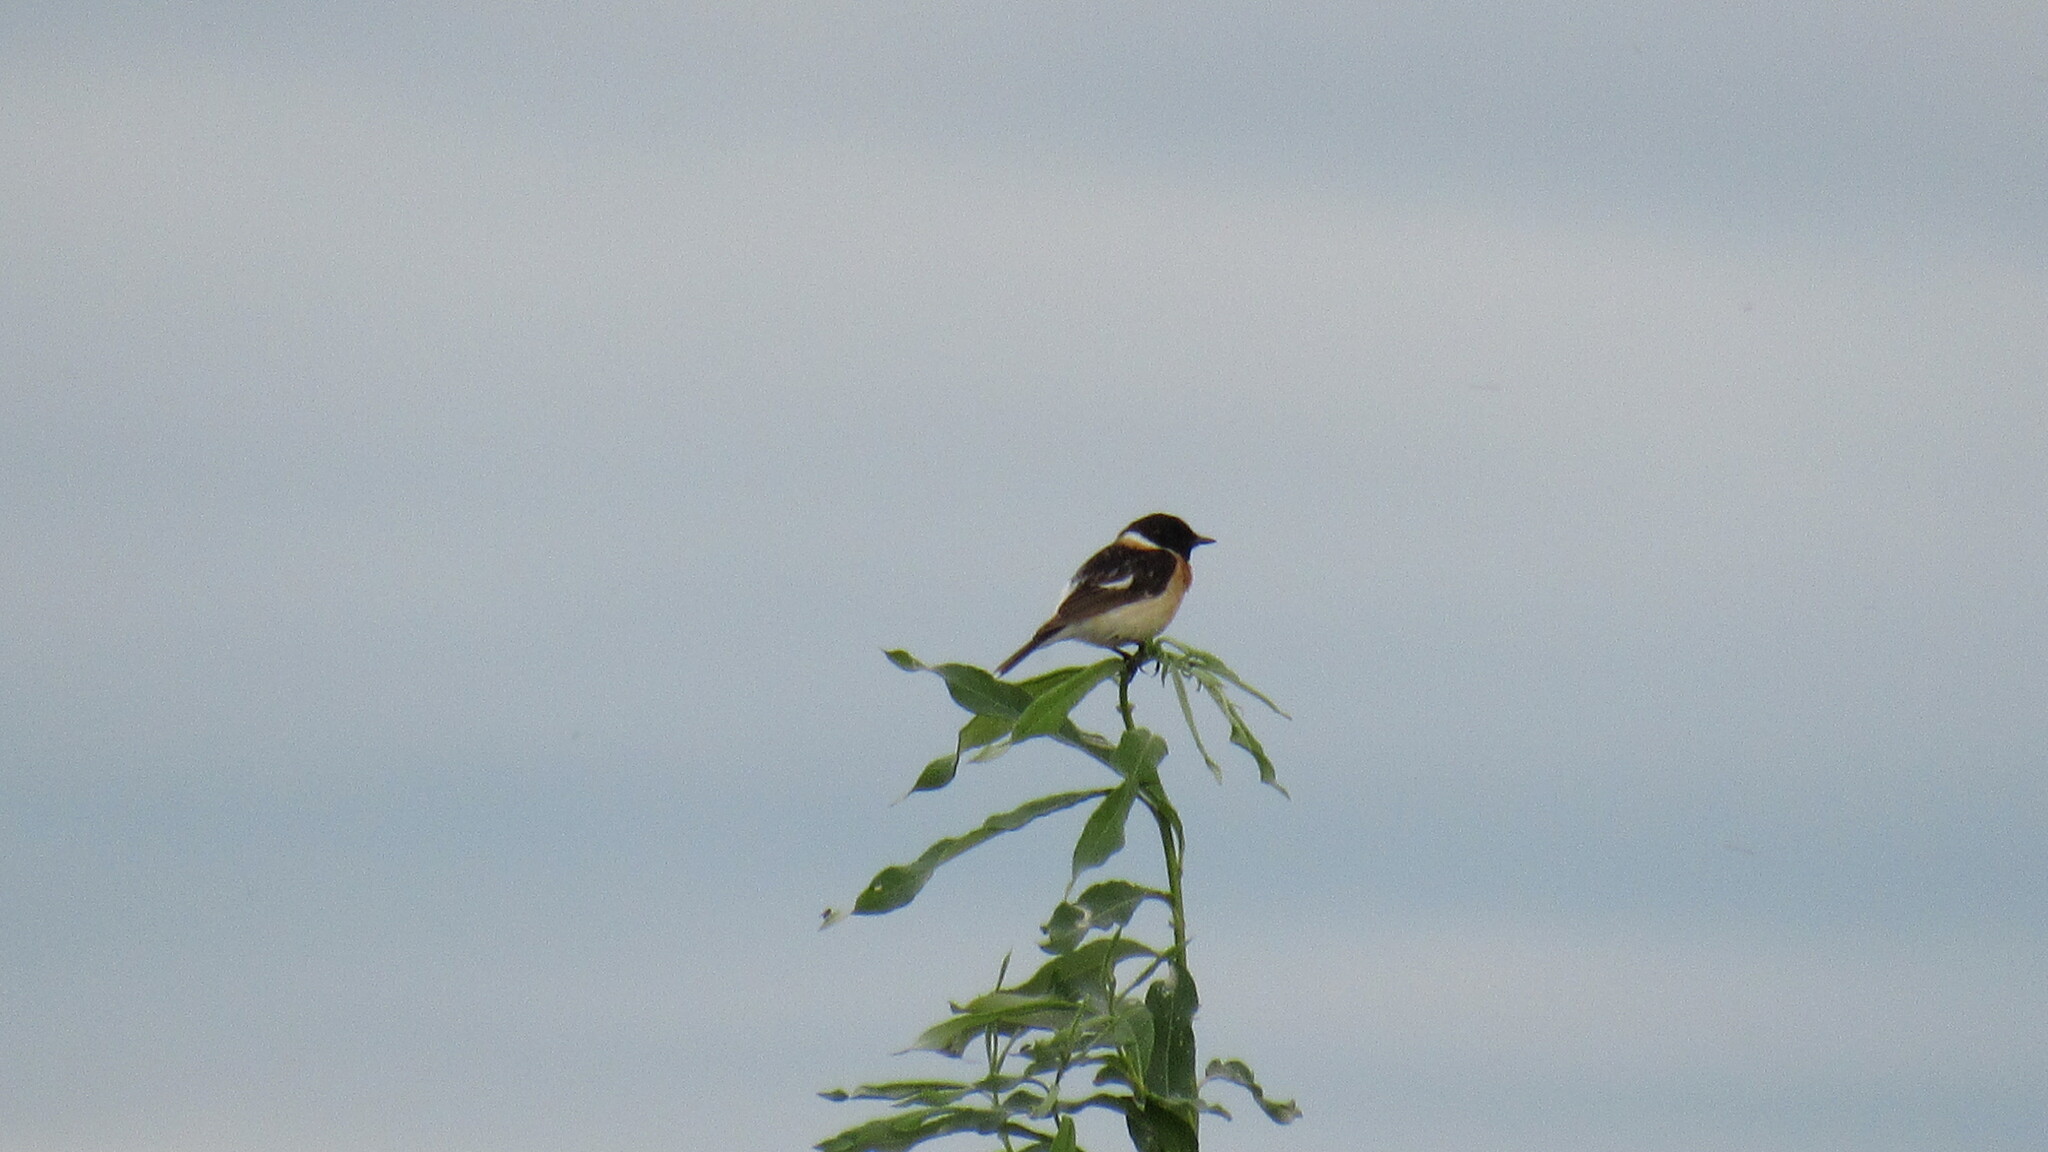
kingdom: Animalia
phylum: Chordata
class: Aves
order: Passeriformes
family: Muscicapidae
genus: Saxicola
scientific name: Saxicola maurus
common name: Siberian stonechat
